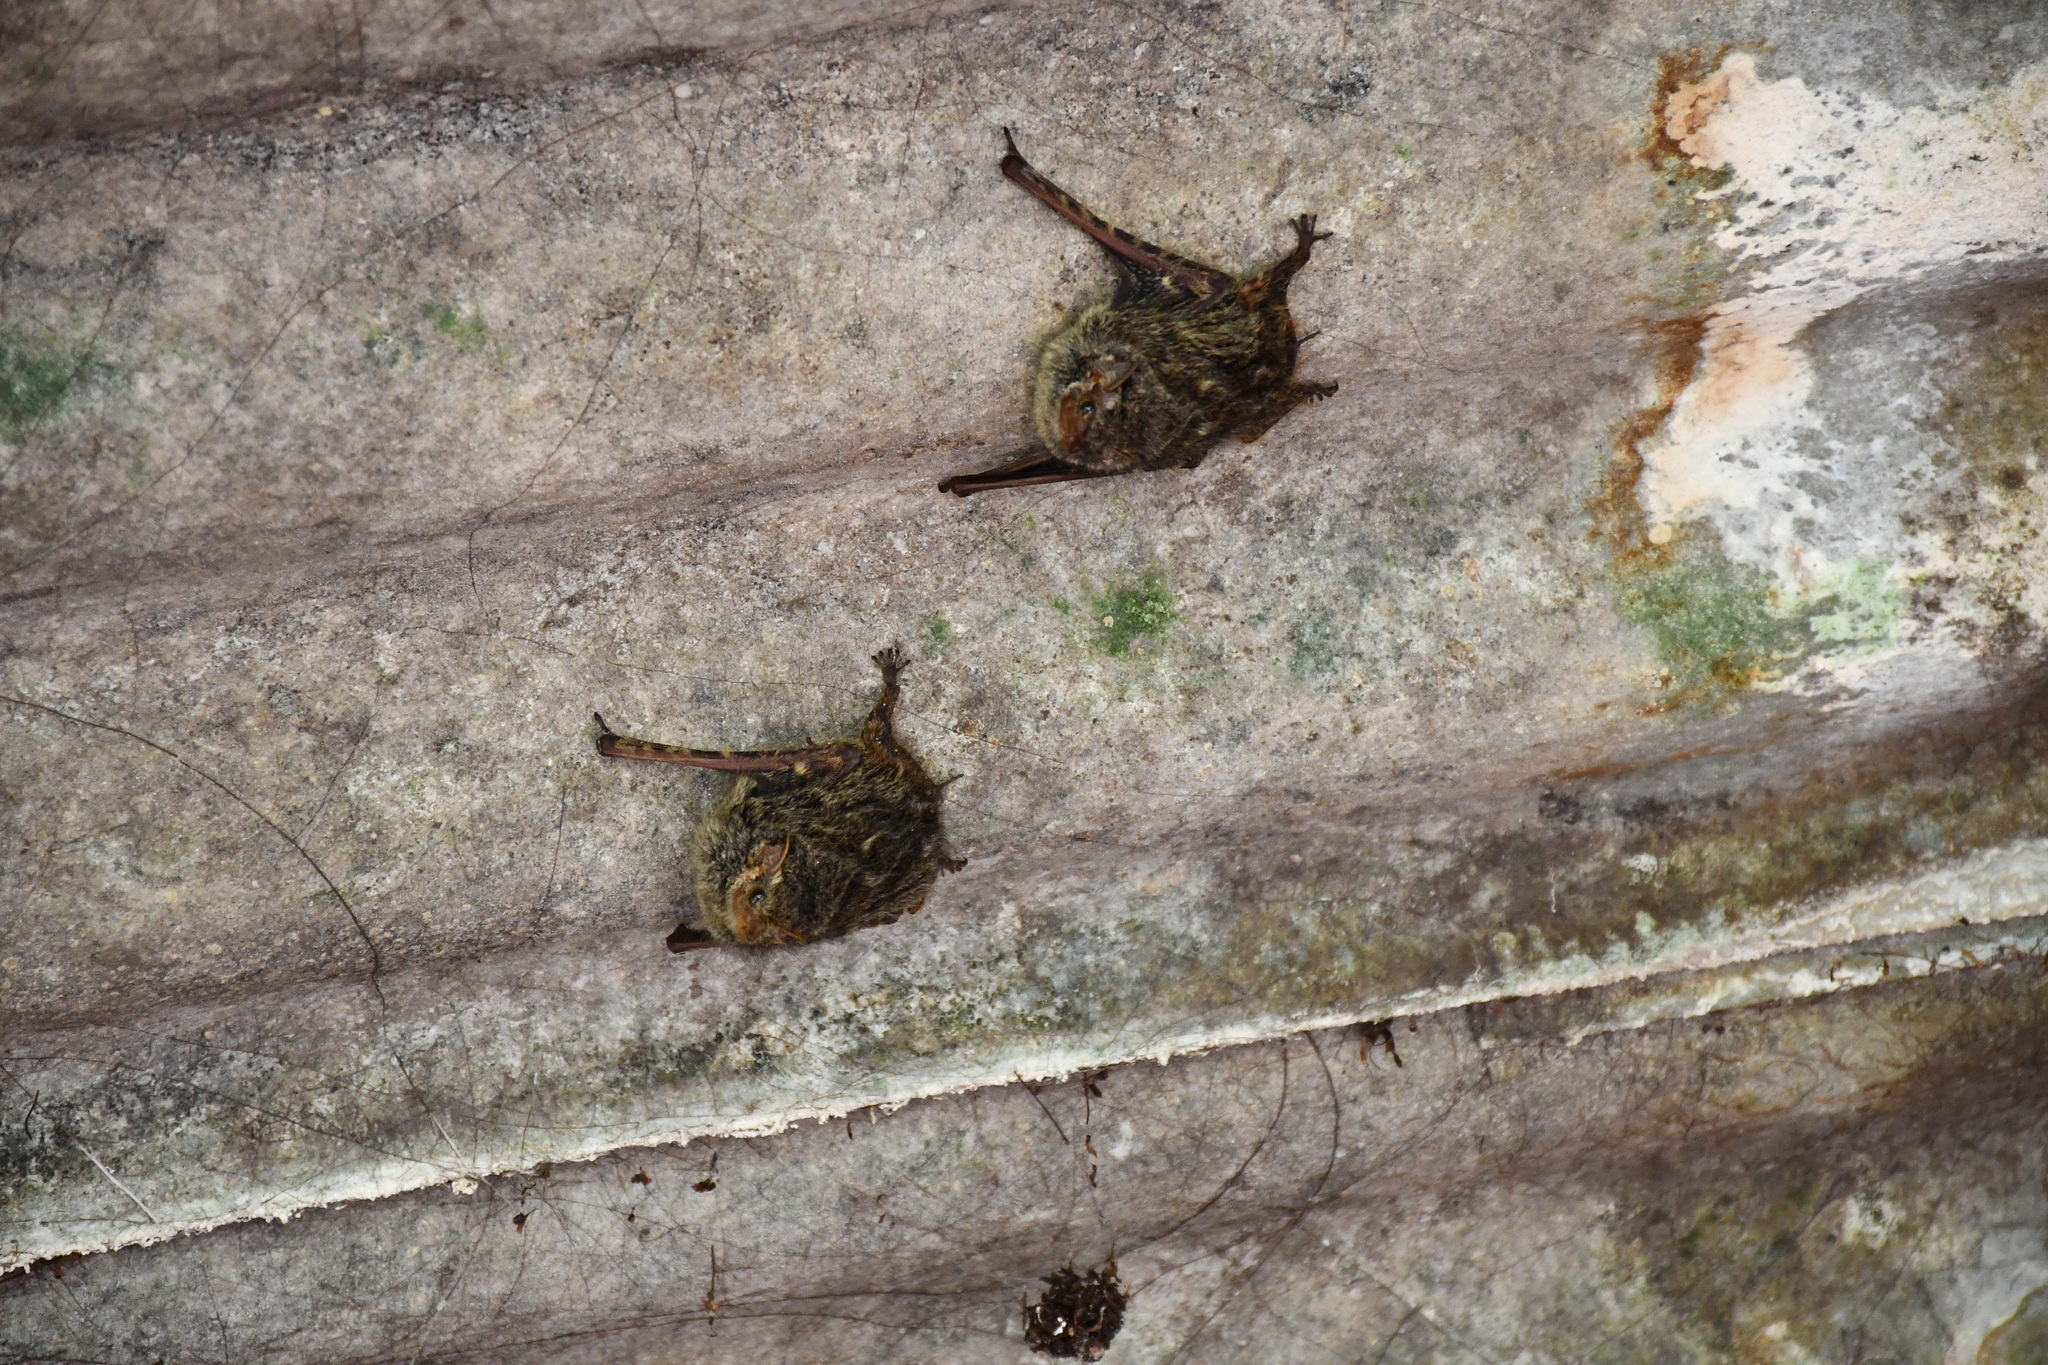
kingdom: Animalia
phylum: Chordata
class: Mammalia
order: Chiroptera
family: Emballonuridae
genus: Rhynchonycteris
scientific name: Rhynchonycteris naso
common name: Proboscis bat
